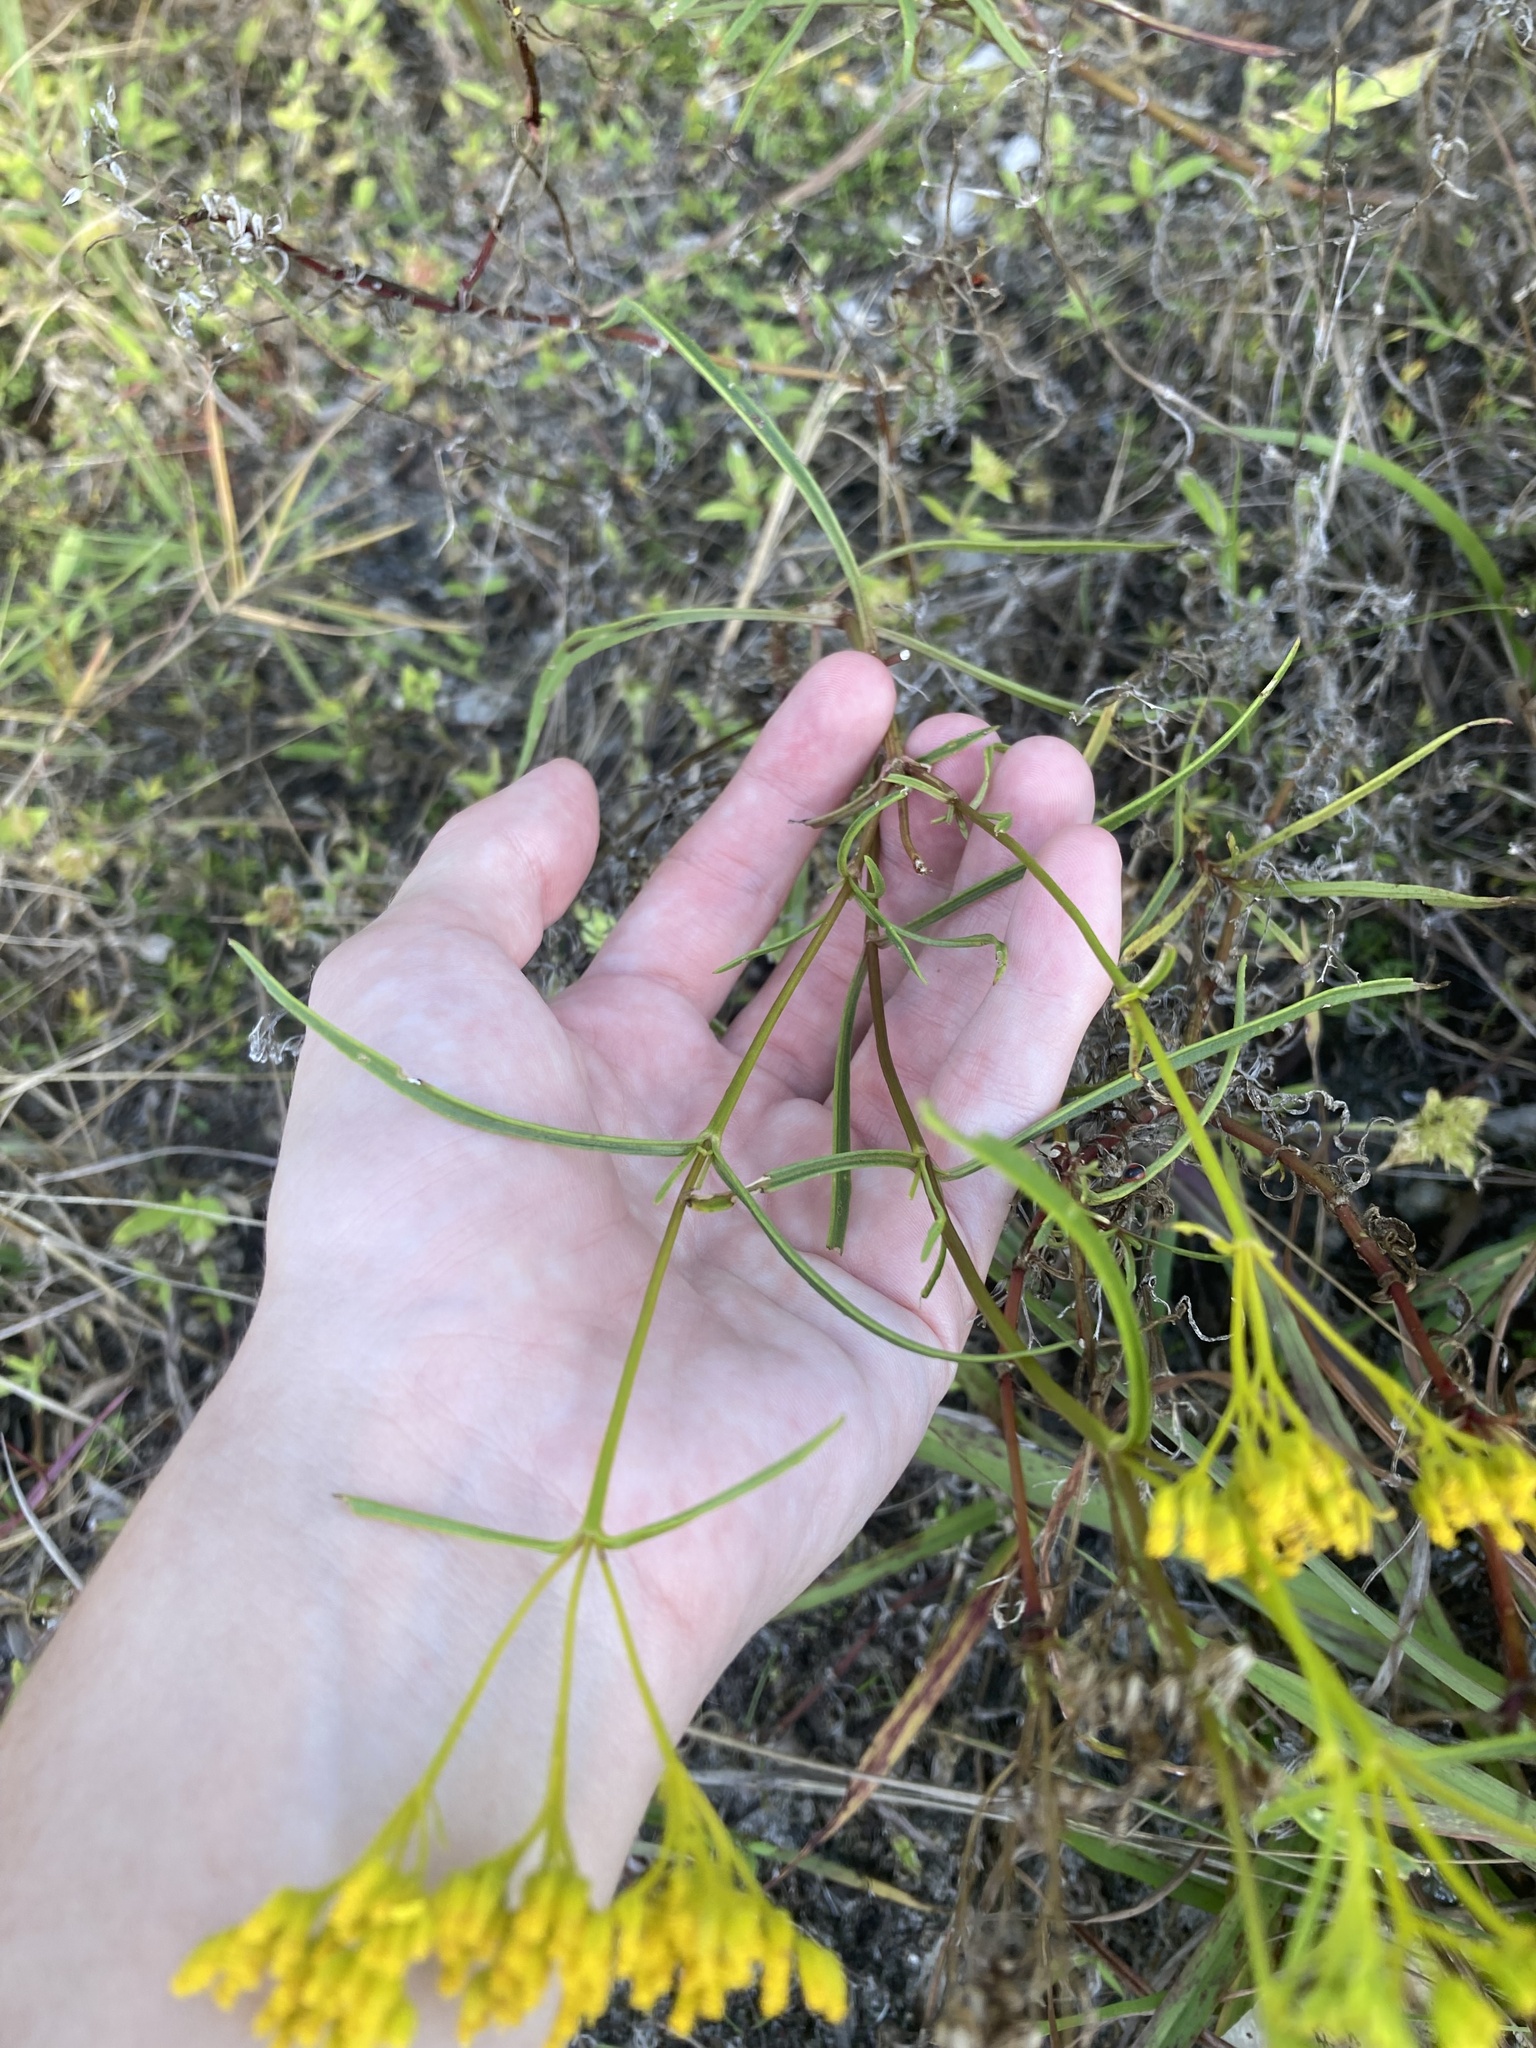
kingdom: Plantae
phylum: Tracheophyta
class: Magnoliopsida
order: Asterales
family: Asteraceae
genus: Flaveria
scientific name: Flaveria linearis
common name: Yellowtop
